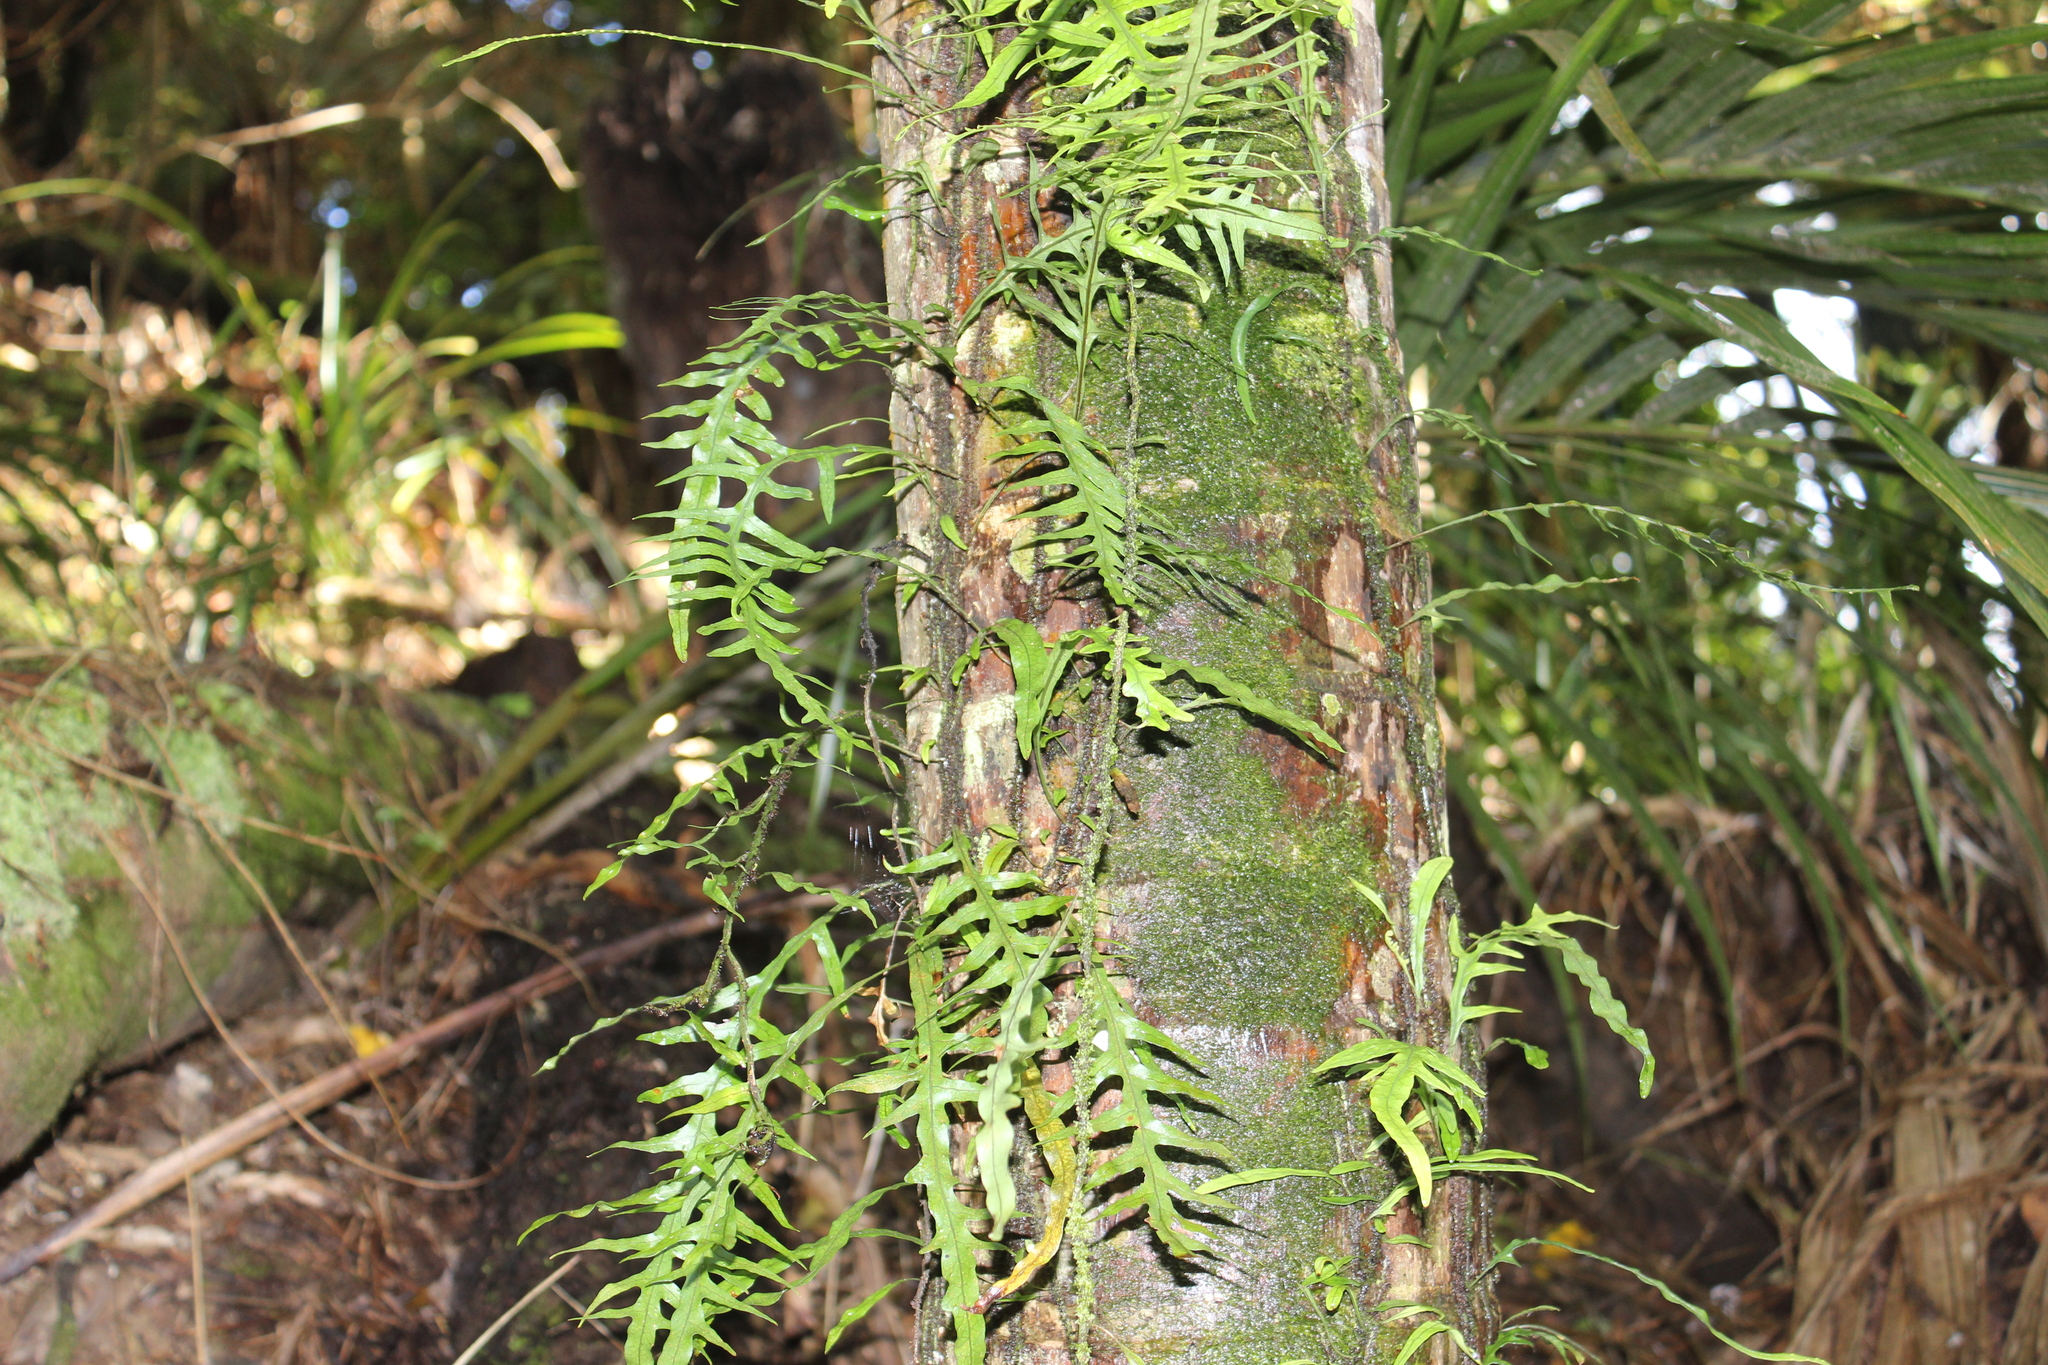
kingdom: Plantae
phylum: Tracheophyta
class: Polypodiopsida
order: Polypodiales
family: Polypodiaceae
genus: Lecanopteris
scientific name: Lecanopteris scandens
